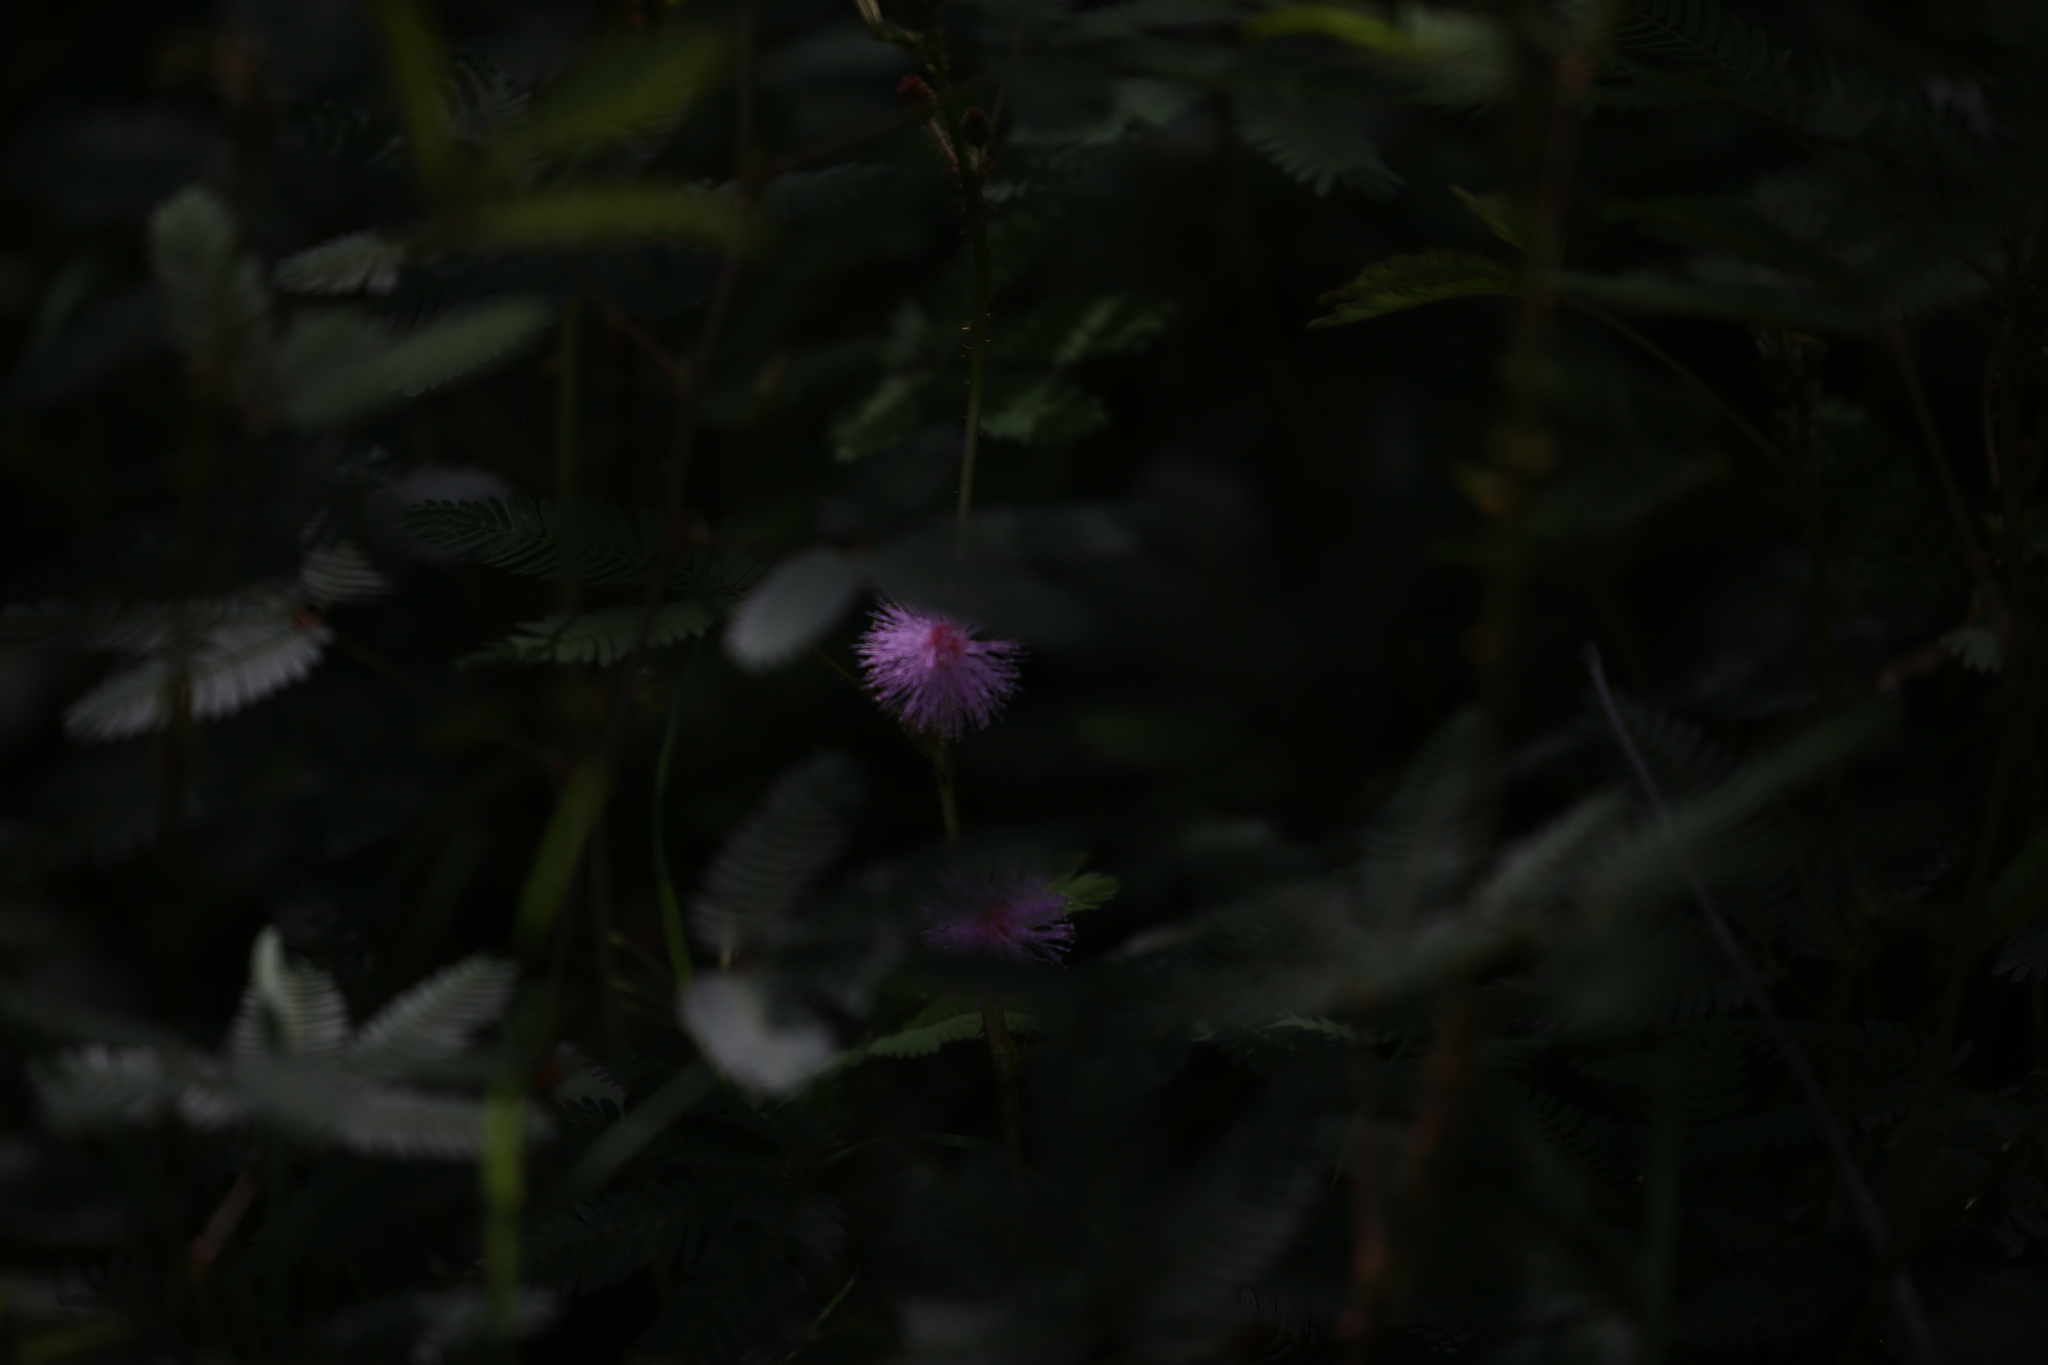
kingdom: Plantae
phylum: Tracheophyta
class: Magnoliopsida
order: Fabales
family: Fabaceae
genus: Mimosa
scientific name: Mimosa pudica
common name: Sensitive plant
